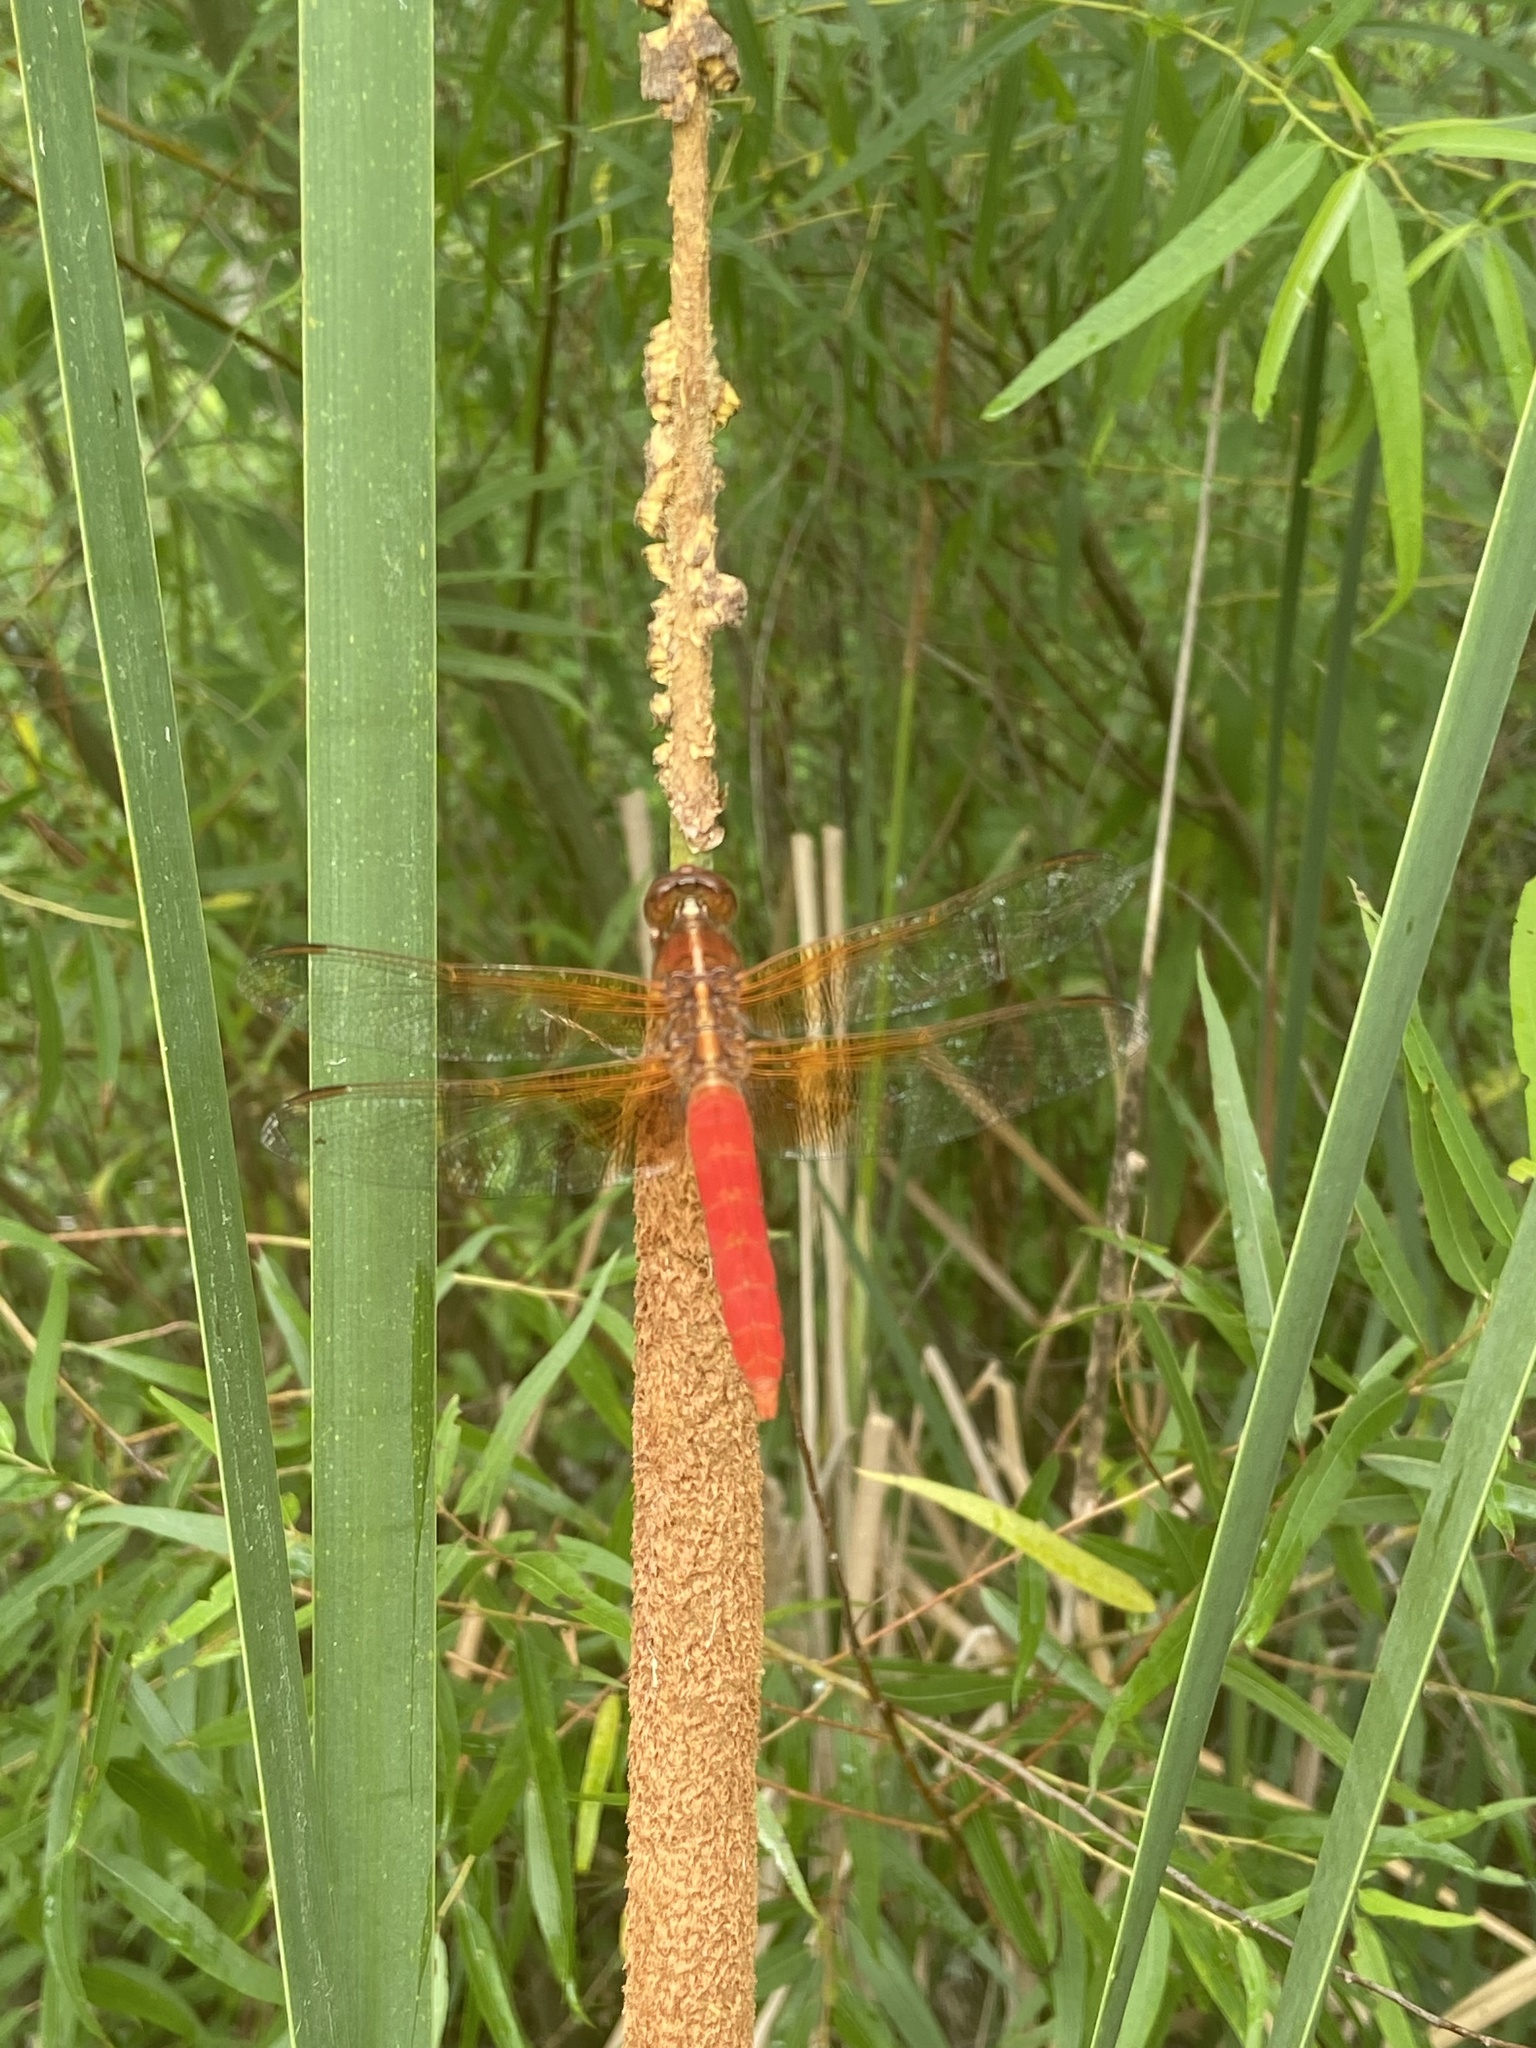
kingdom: Animalia
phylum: Arthropoda
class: Insecta
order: Odonata
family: Libellulidae
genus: Libellula
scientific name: Libellula croceipennis
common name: Neon skimmer
